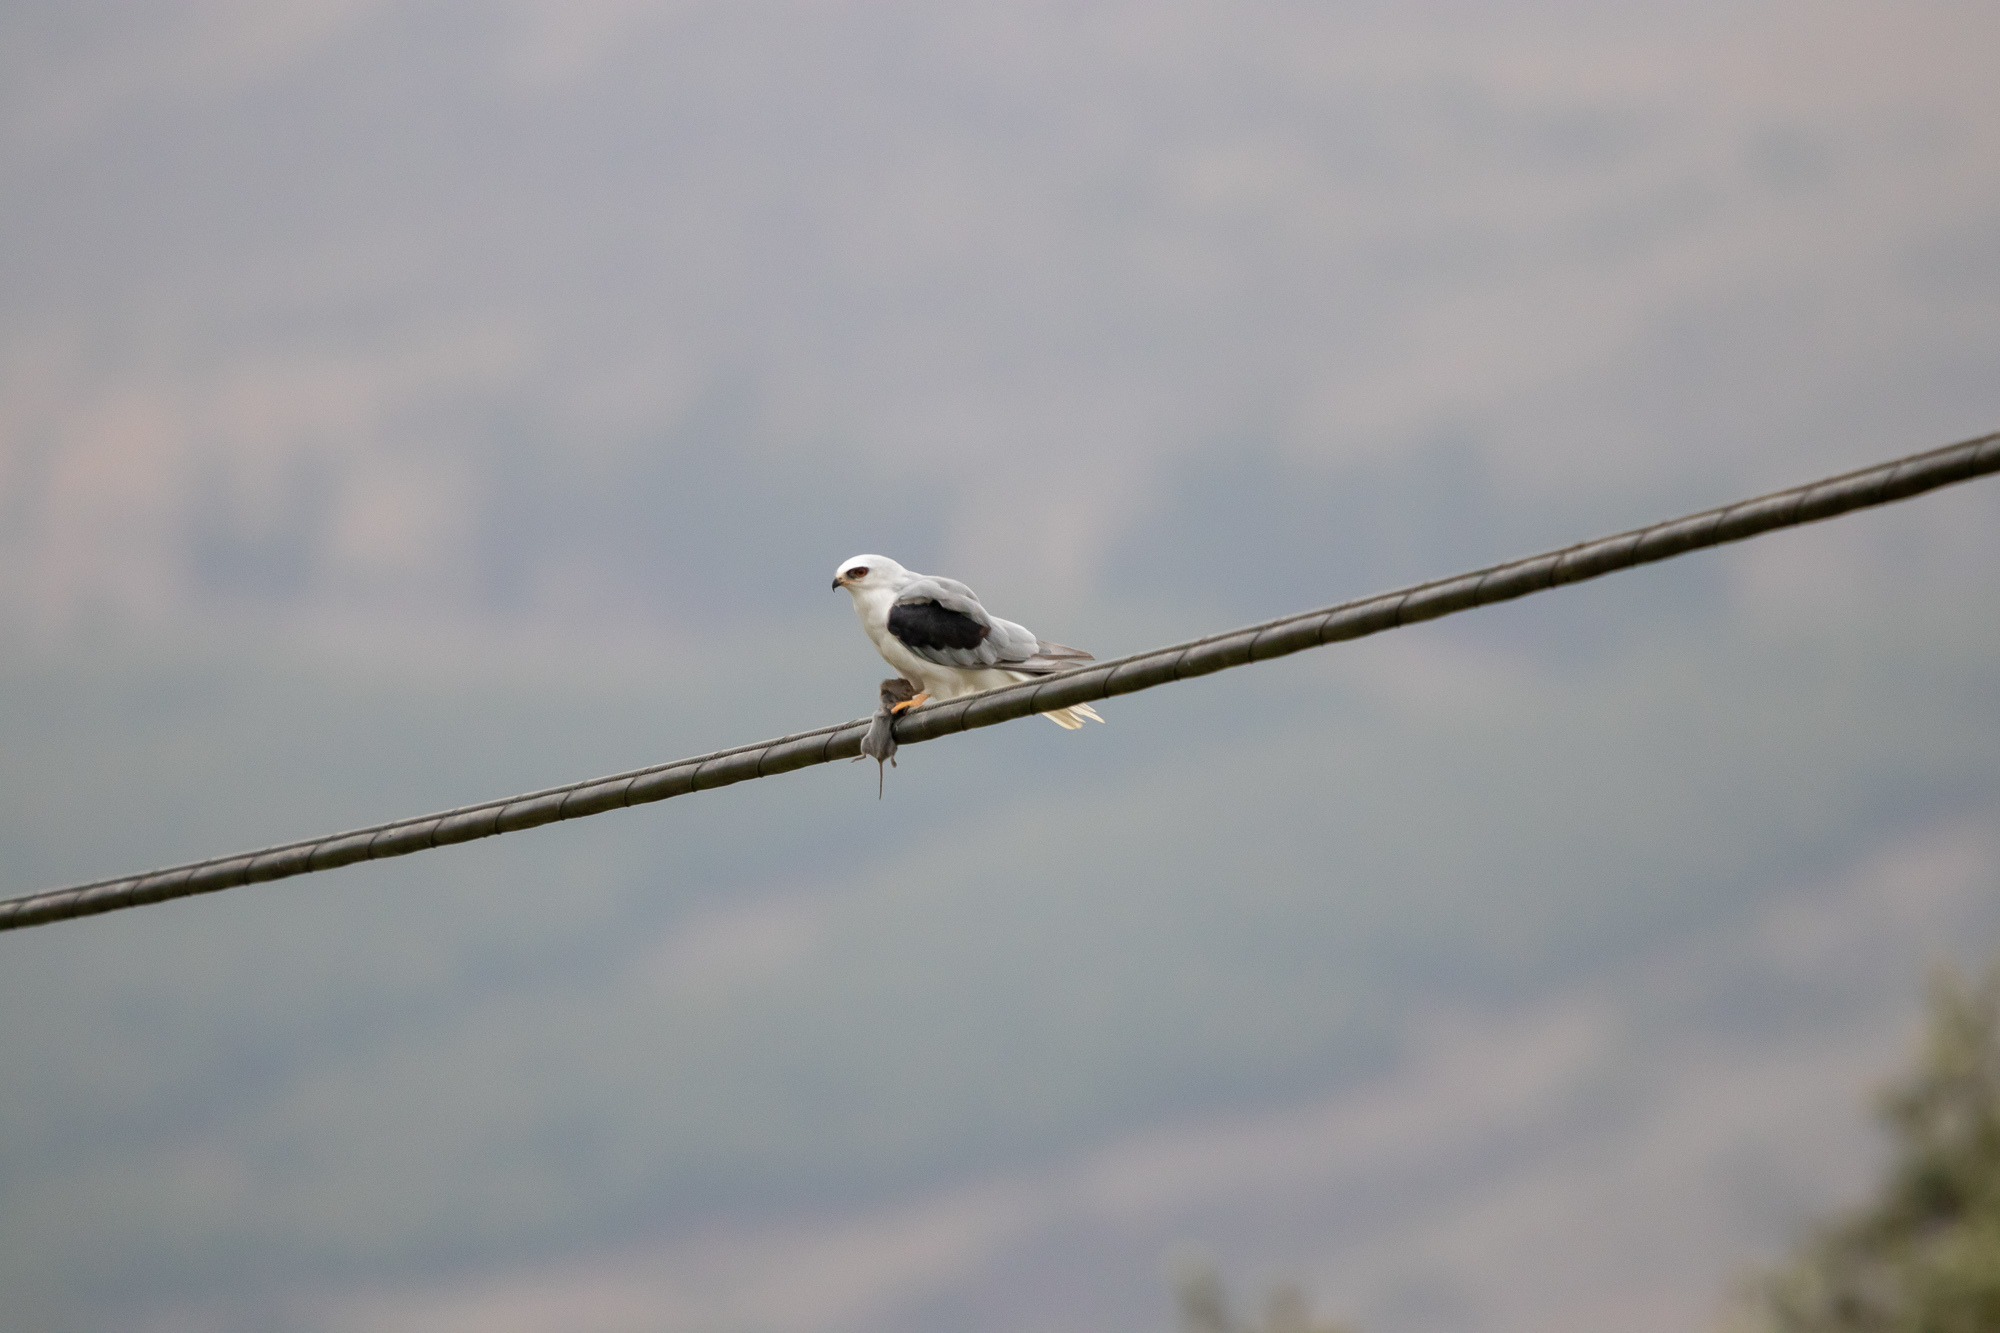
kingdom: Animalia
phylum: Chordata
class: Aves
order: Accipitriformes
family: Accipitridae
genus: Elanus
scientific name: Elanus leucurus
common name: White-tailed kite
